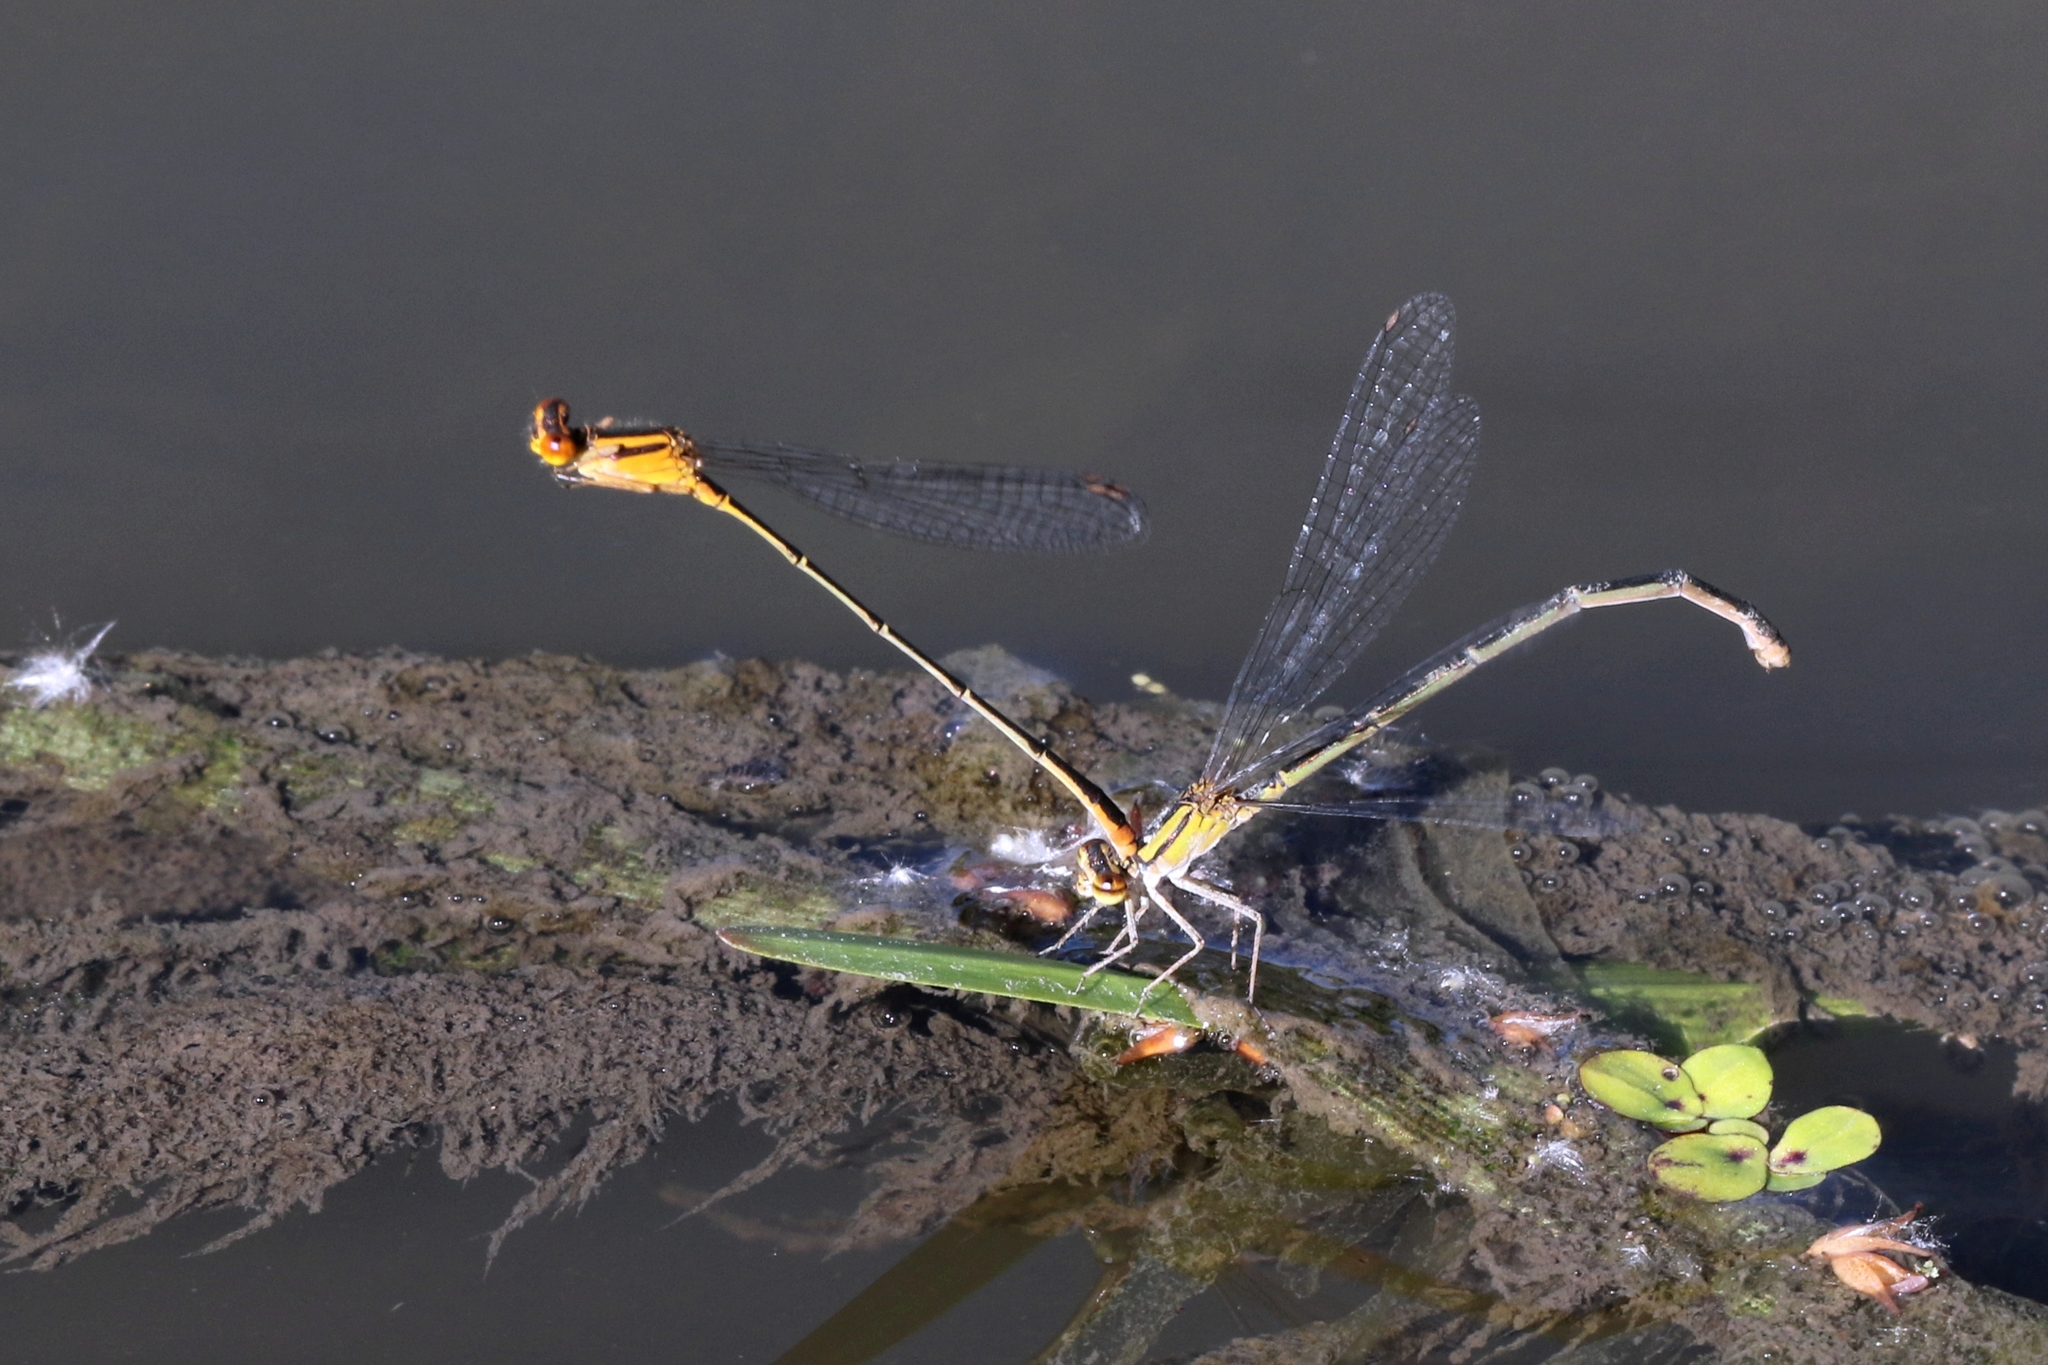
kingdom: Animalia
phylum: Arthropoda
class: Insecta
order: Odonata
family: Coenagrionidae
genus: Enallagma
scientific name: Enallagma signatum
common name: Orange bluet
